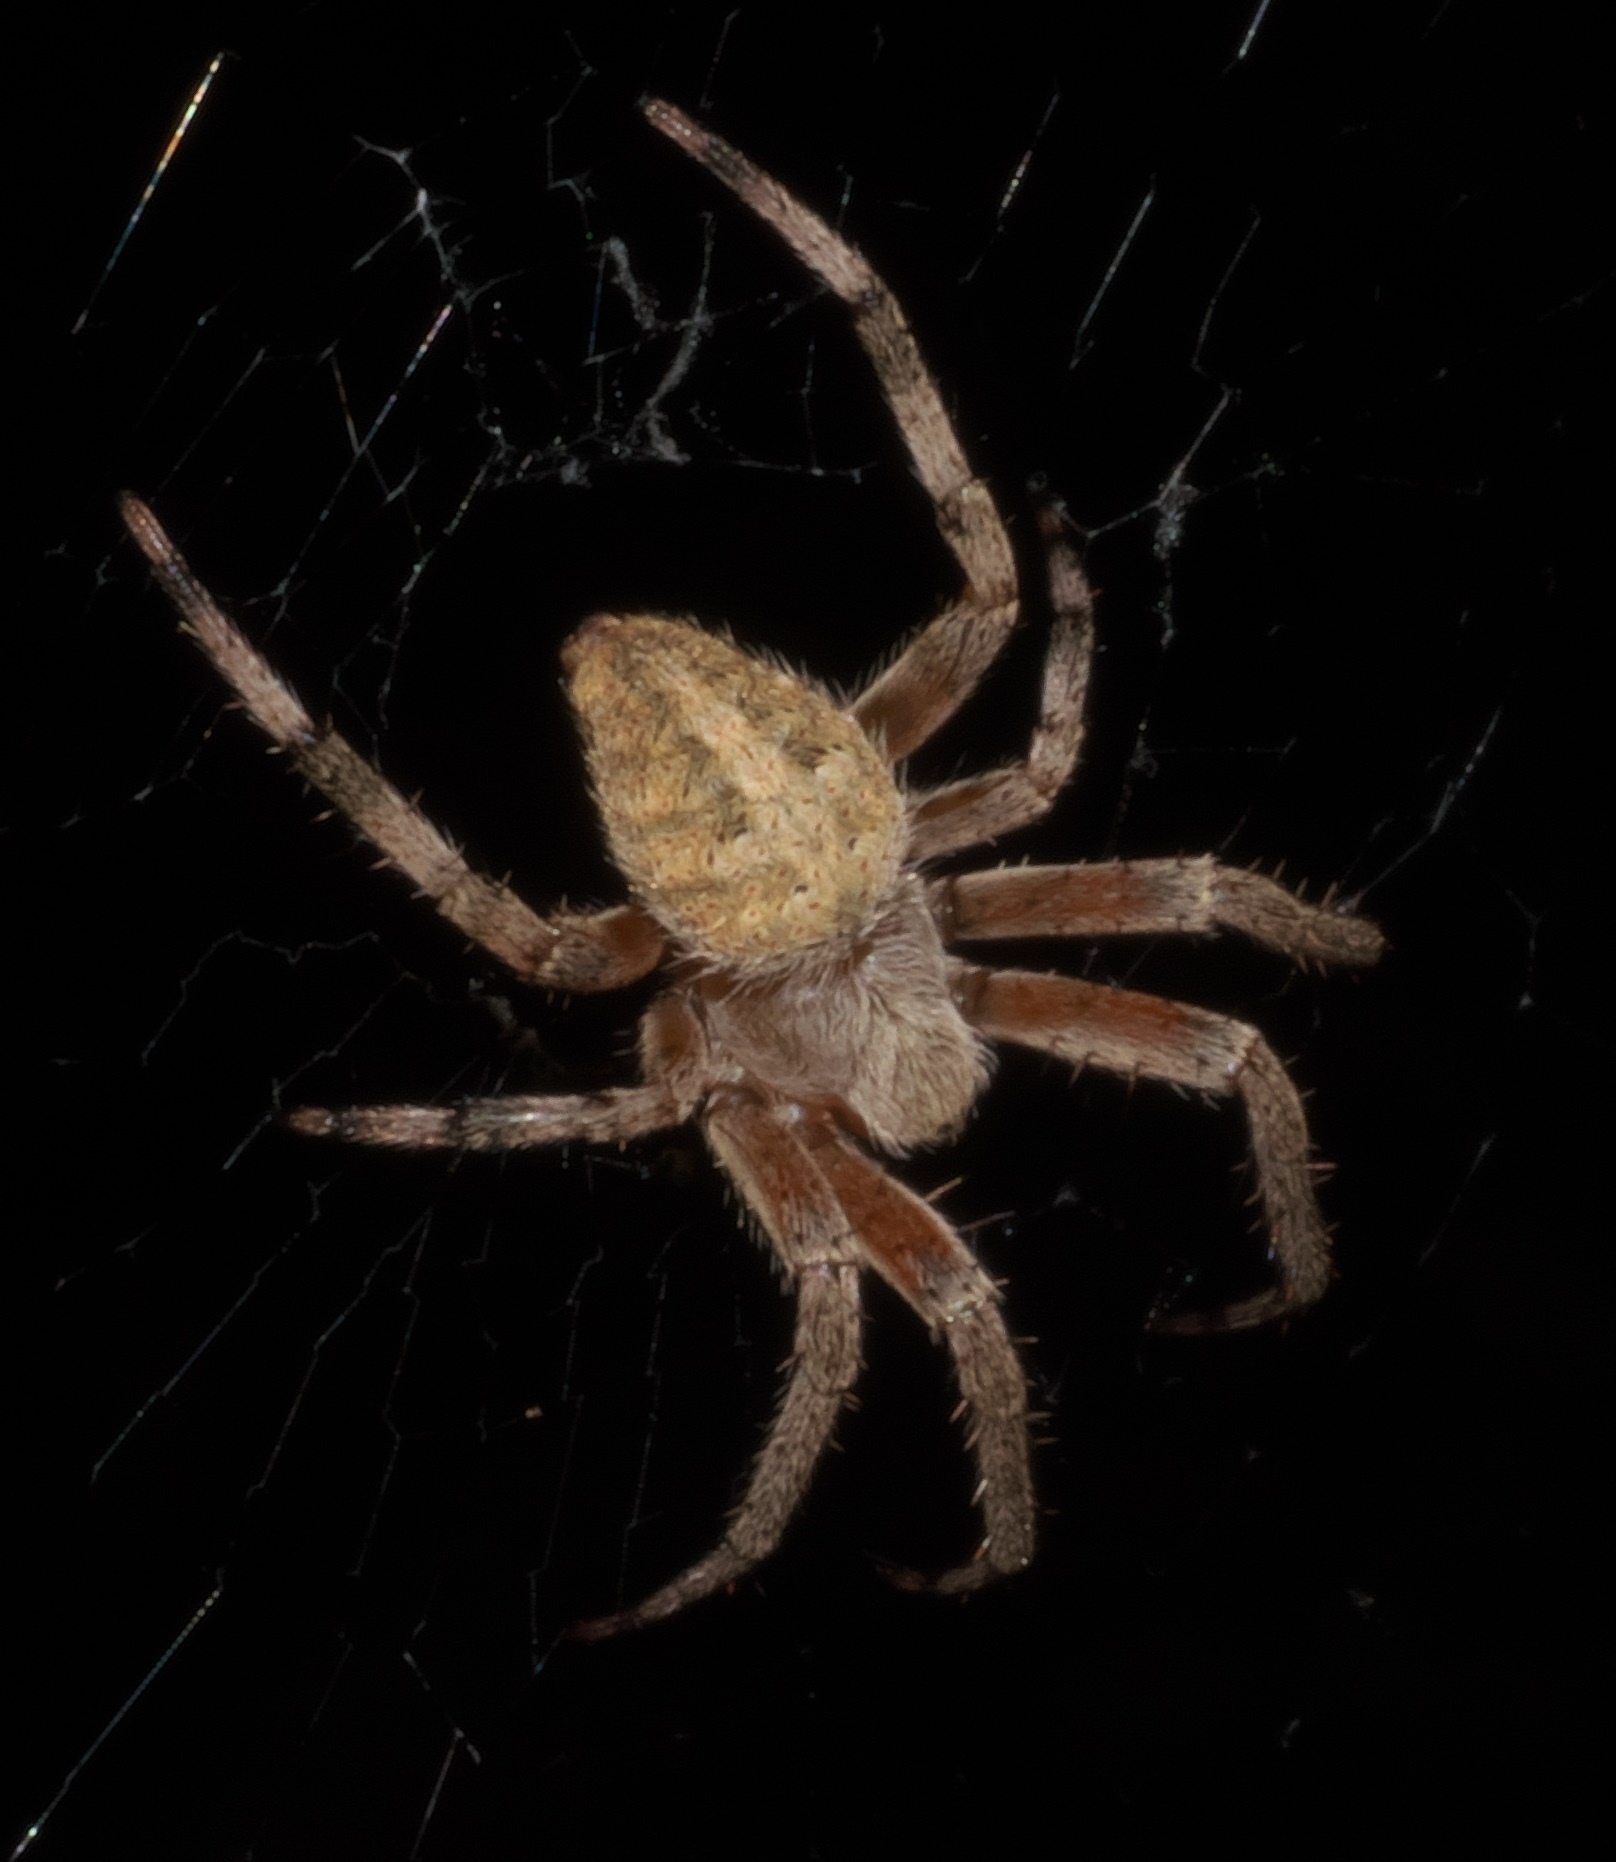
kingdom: Animalia
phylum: Arthropoda
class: Arachnida
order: Araneae
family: Araneidae
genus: Neoscona
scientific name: Neoscona crucifera
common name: Spotted orbweaver
